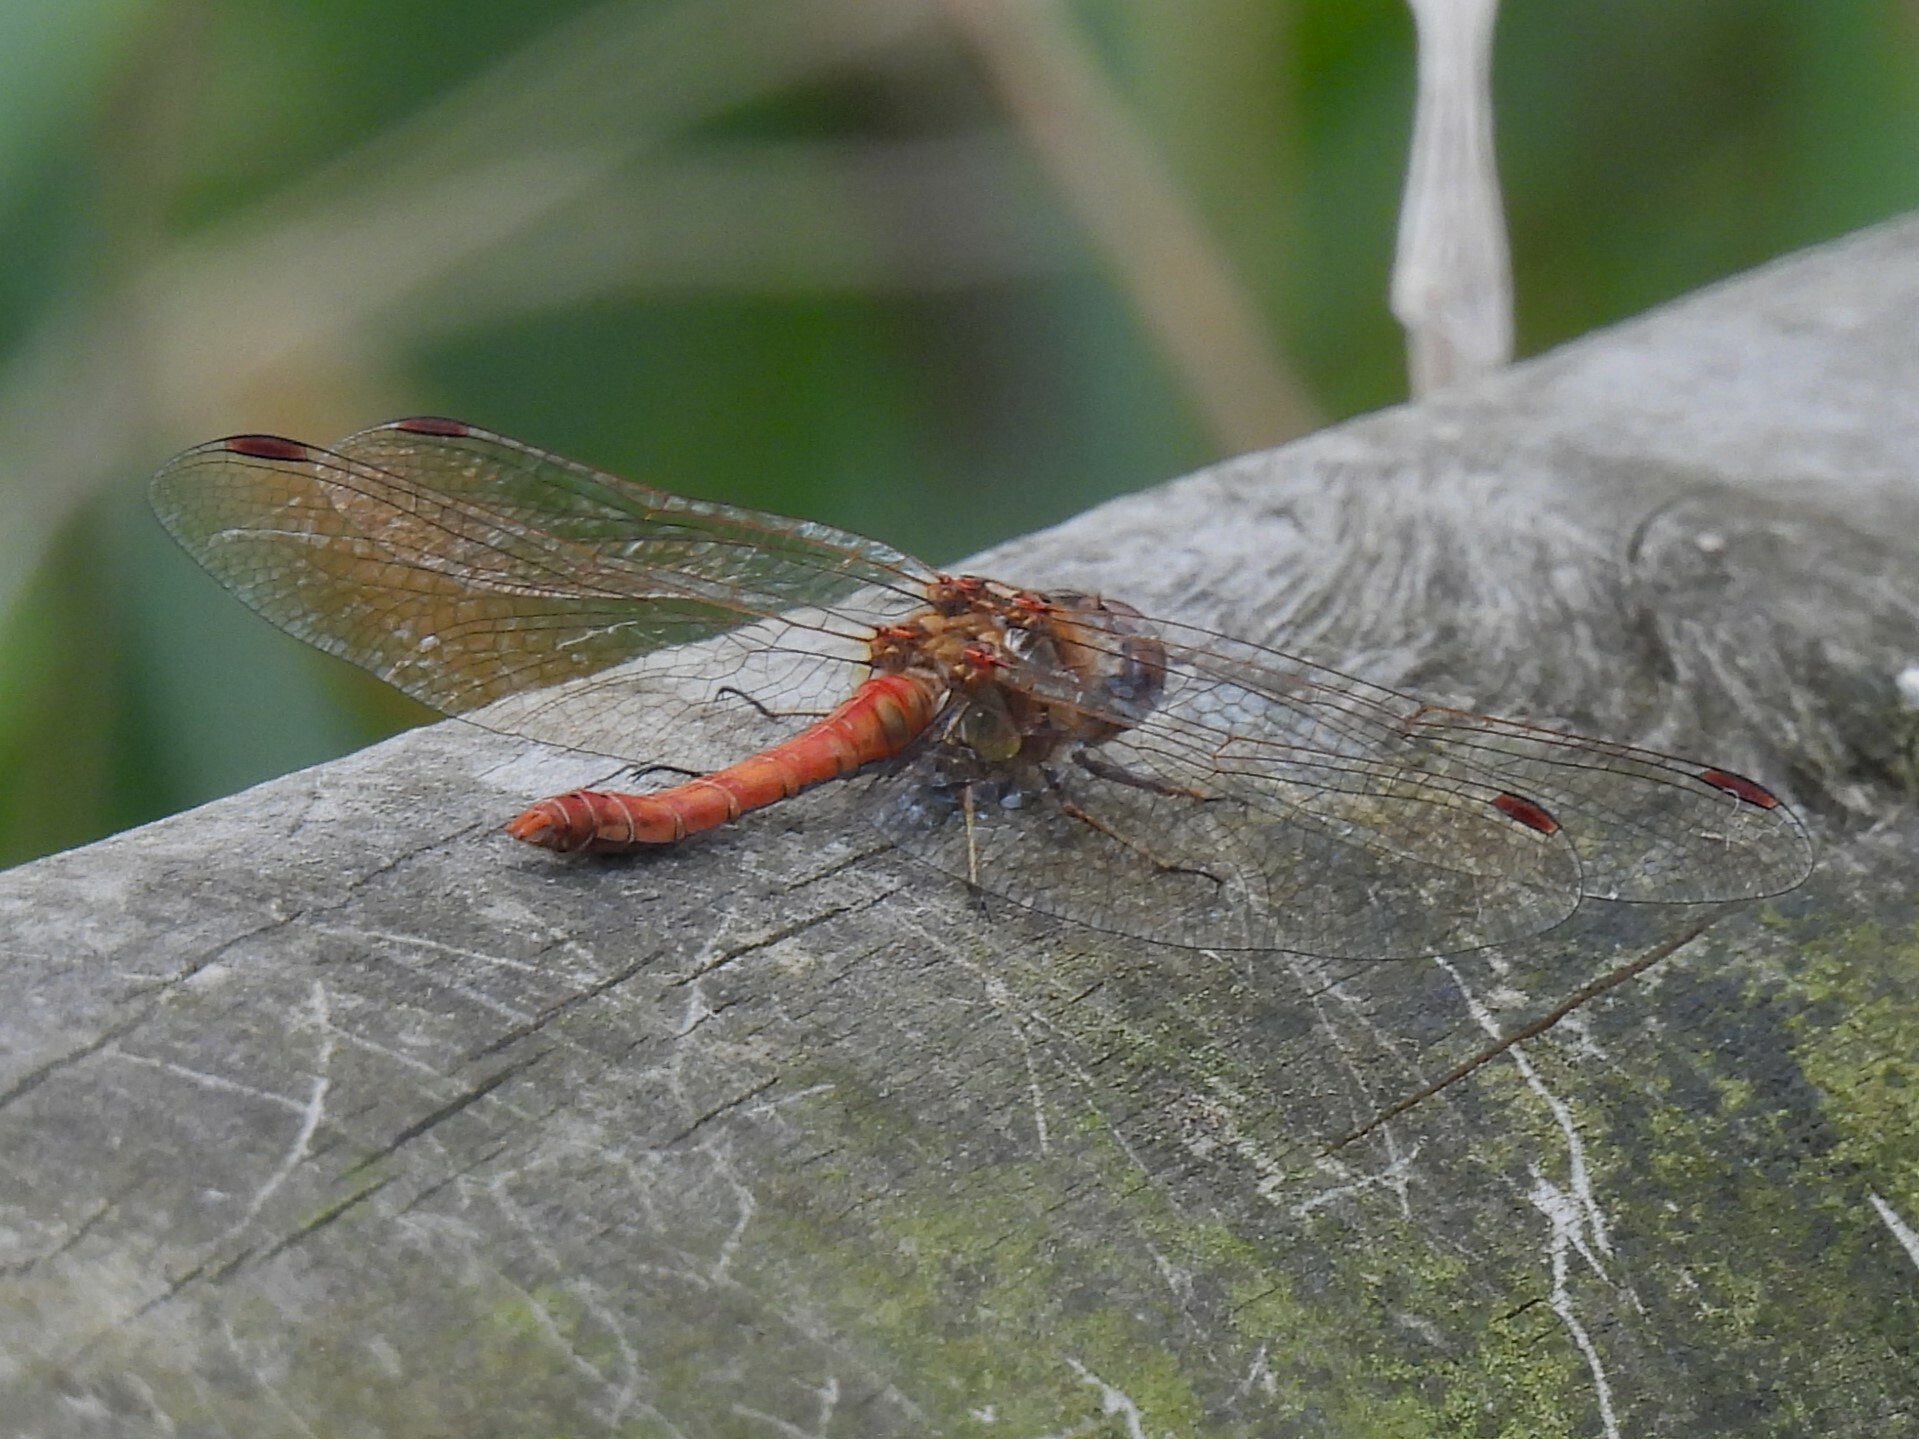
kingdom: Animalia
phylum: Arthropoda
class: Insecta
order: Odonata
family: Libellulidae
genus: Sympetrum
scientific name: Sympetrum striolatum
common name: Common darter
